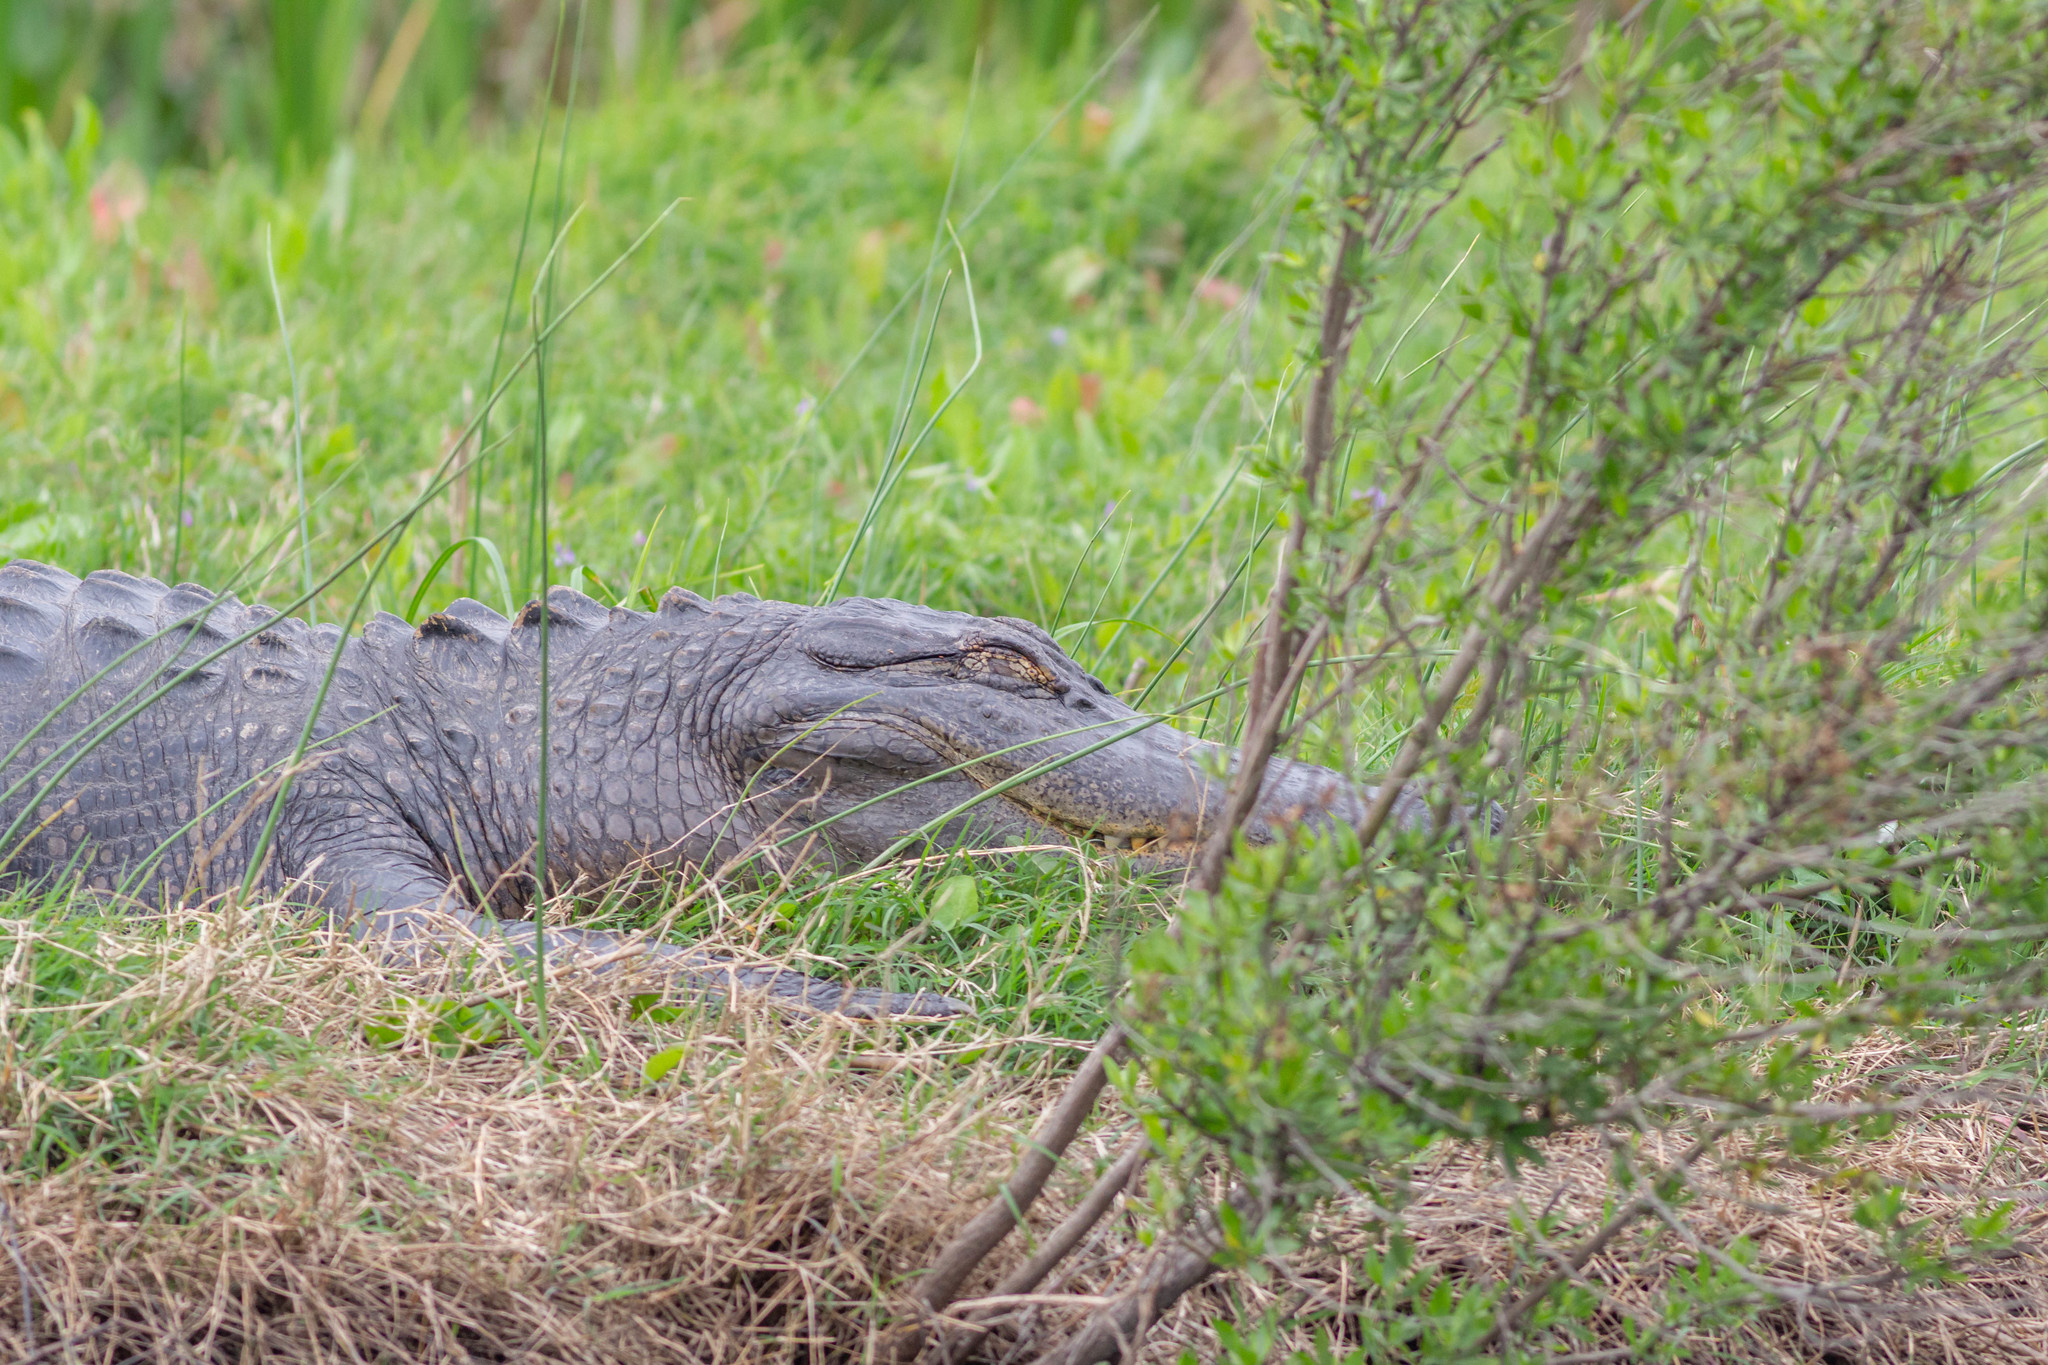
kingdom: Animalia
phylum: Chordata
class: Crocodylia
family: Alligatoridae
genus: Alligator
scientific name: Alligator mississippiensis
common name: American alligator
